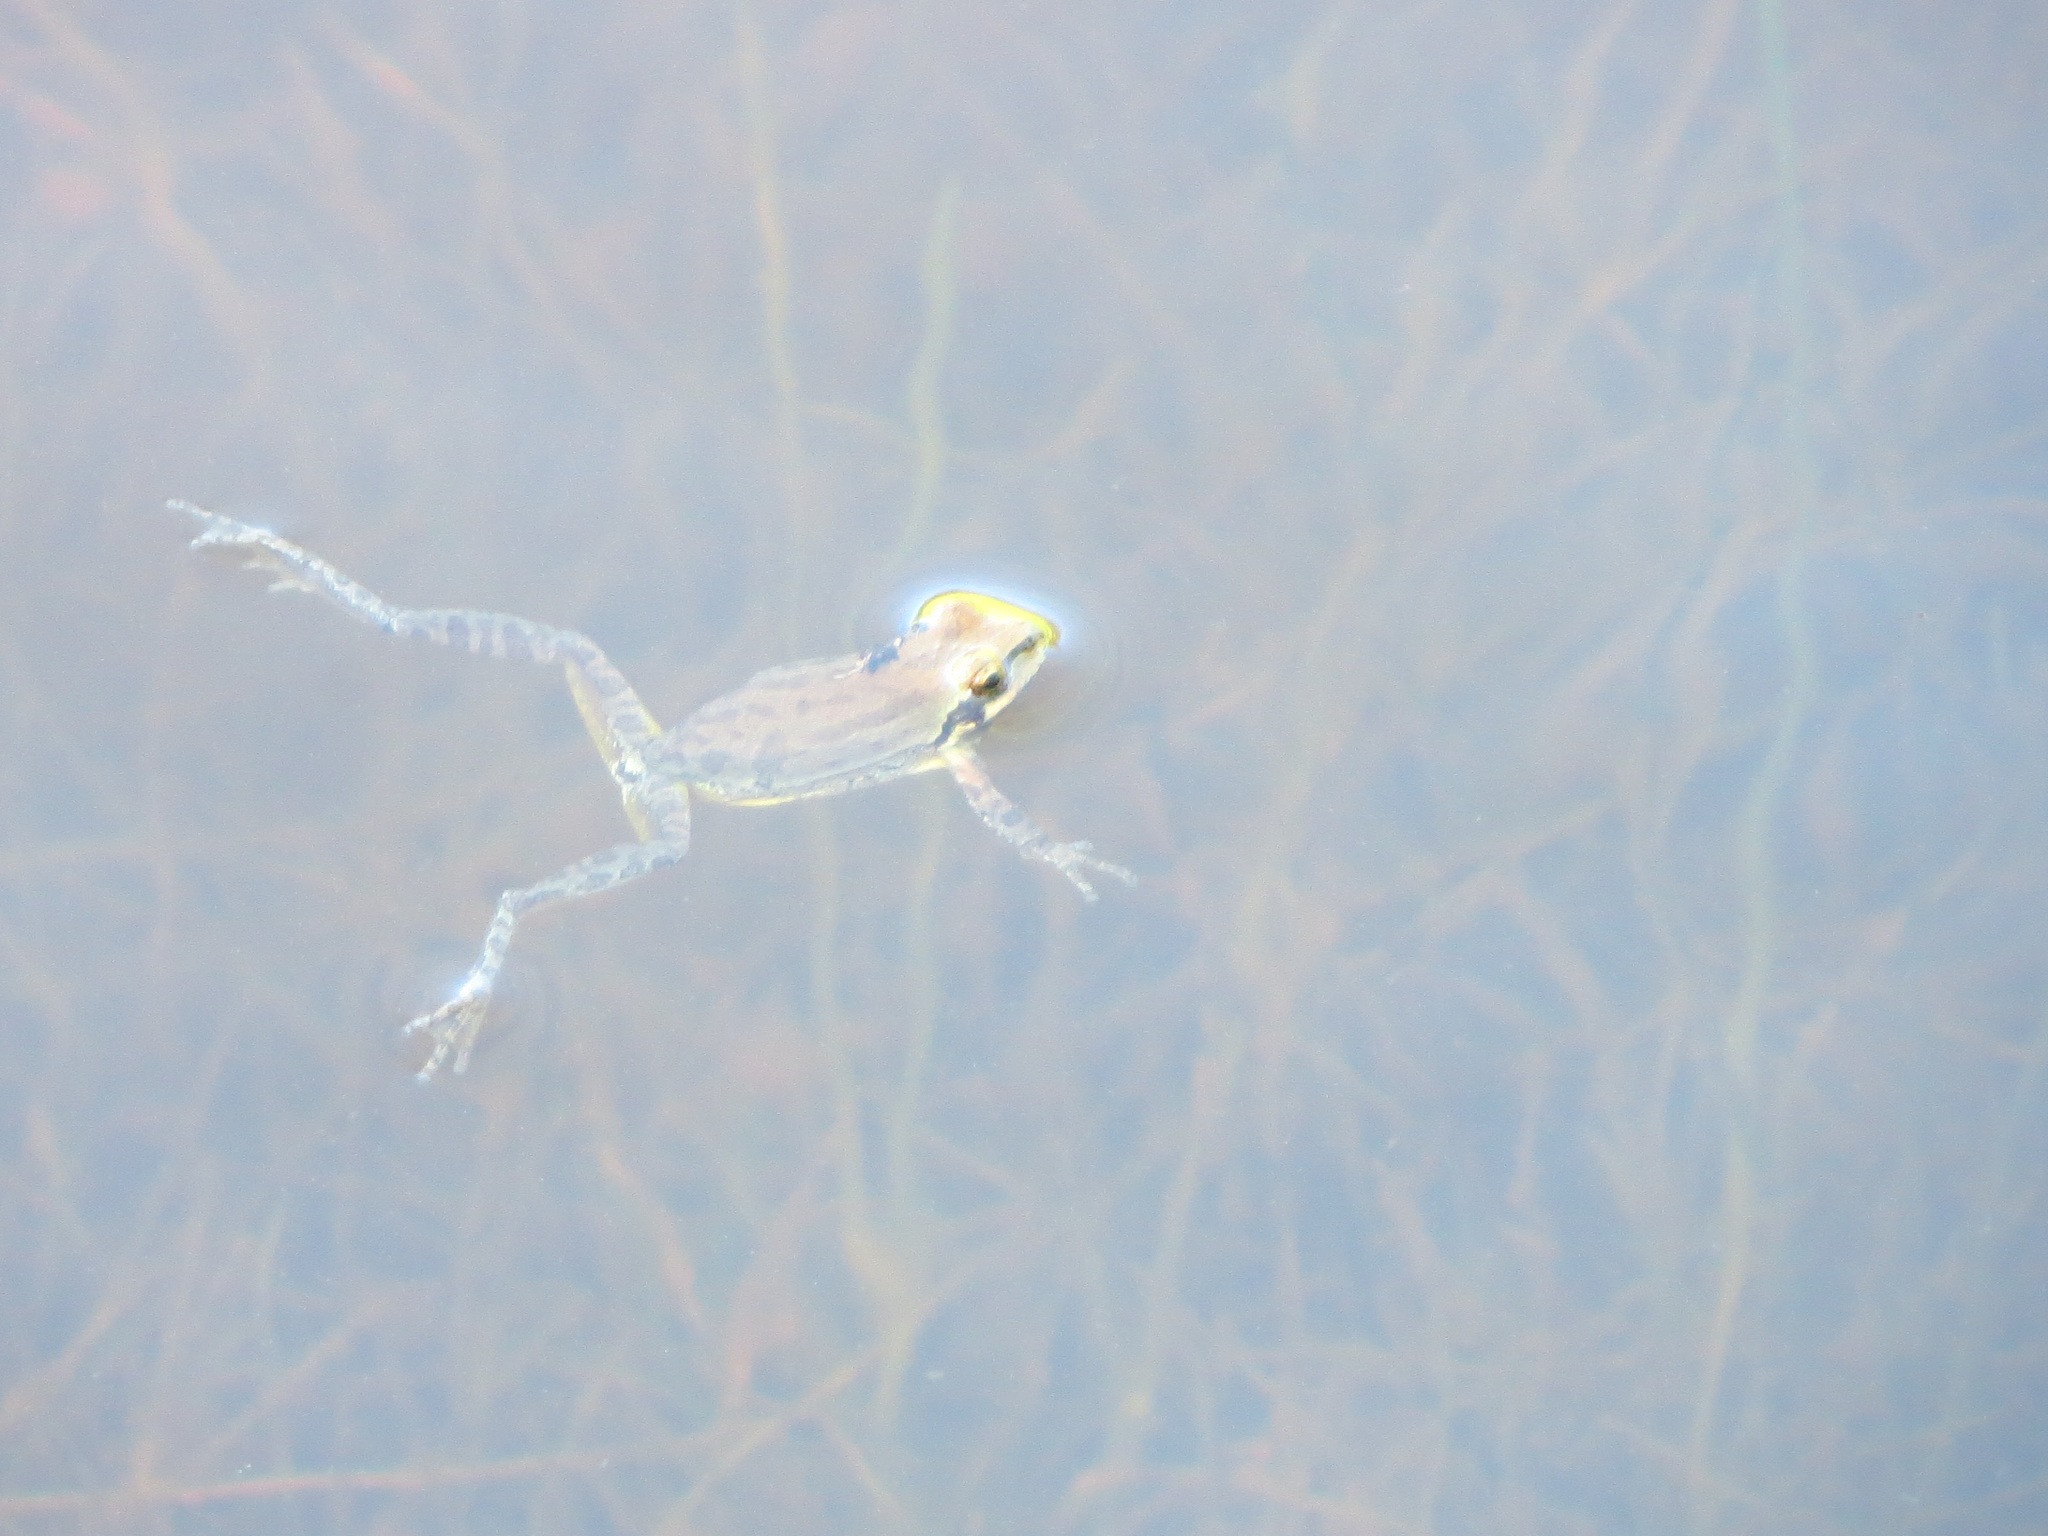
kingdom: Animalia
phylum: Chordata
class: Amphibia
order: Anura
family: Hylidae
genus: Pseudacris
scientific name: Pseudacris regilla
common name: Pacific chorus frog
